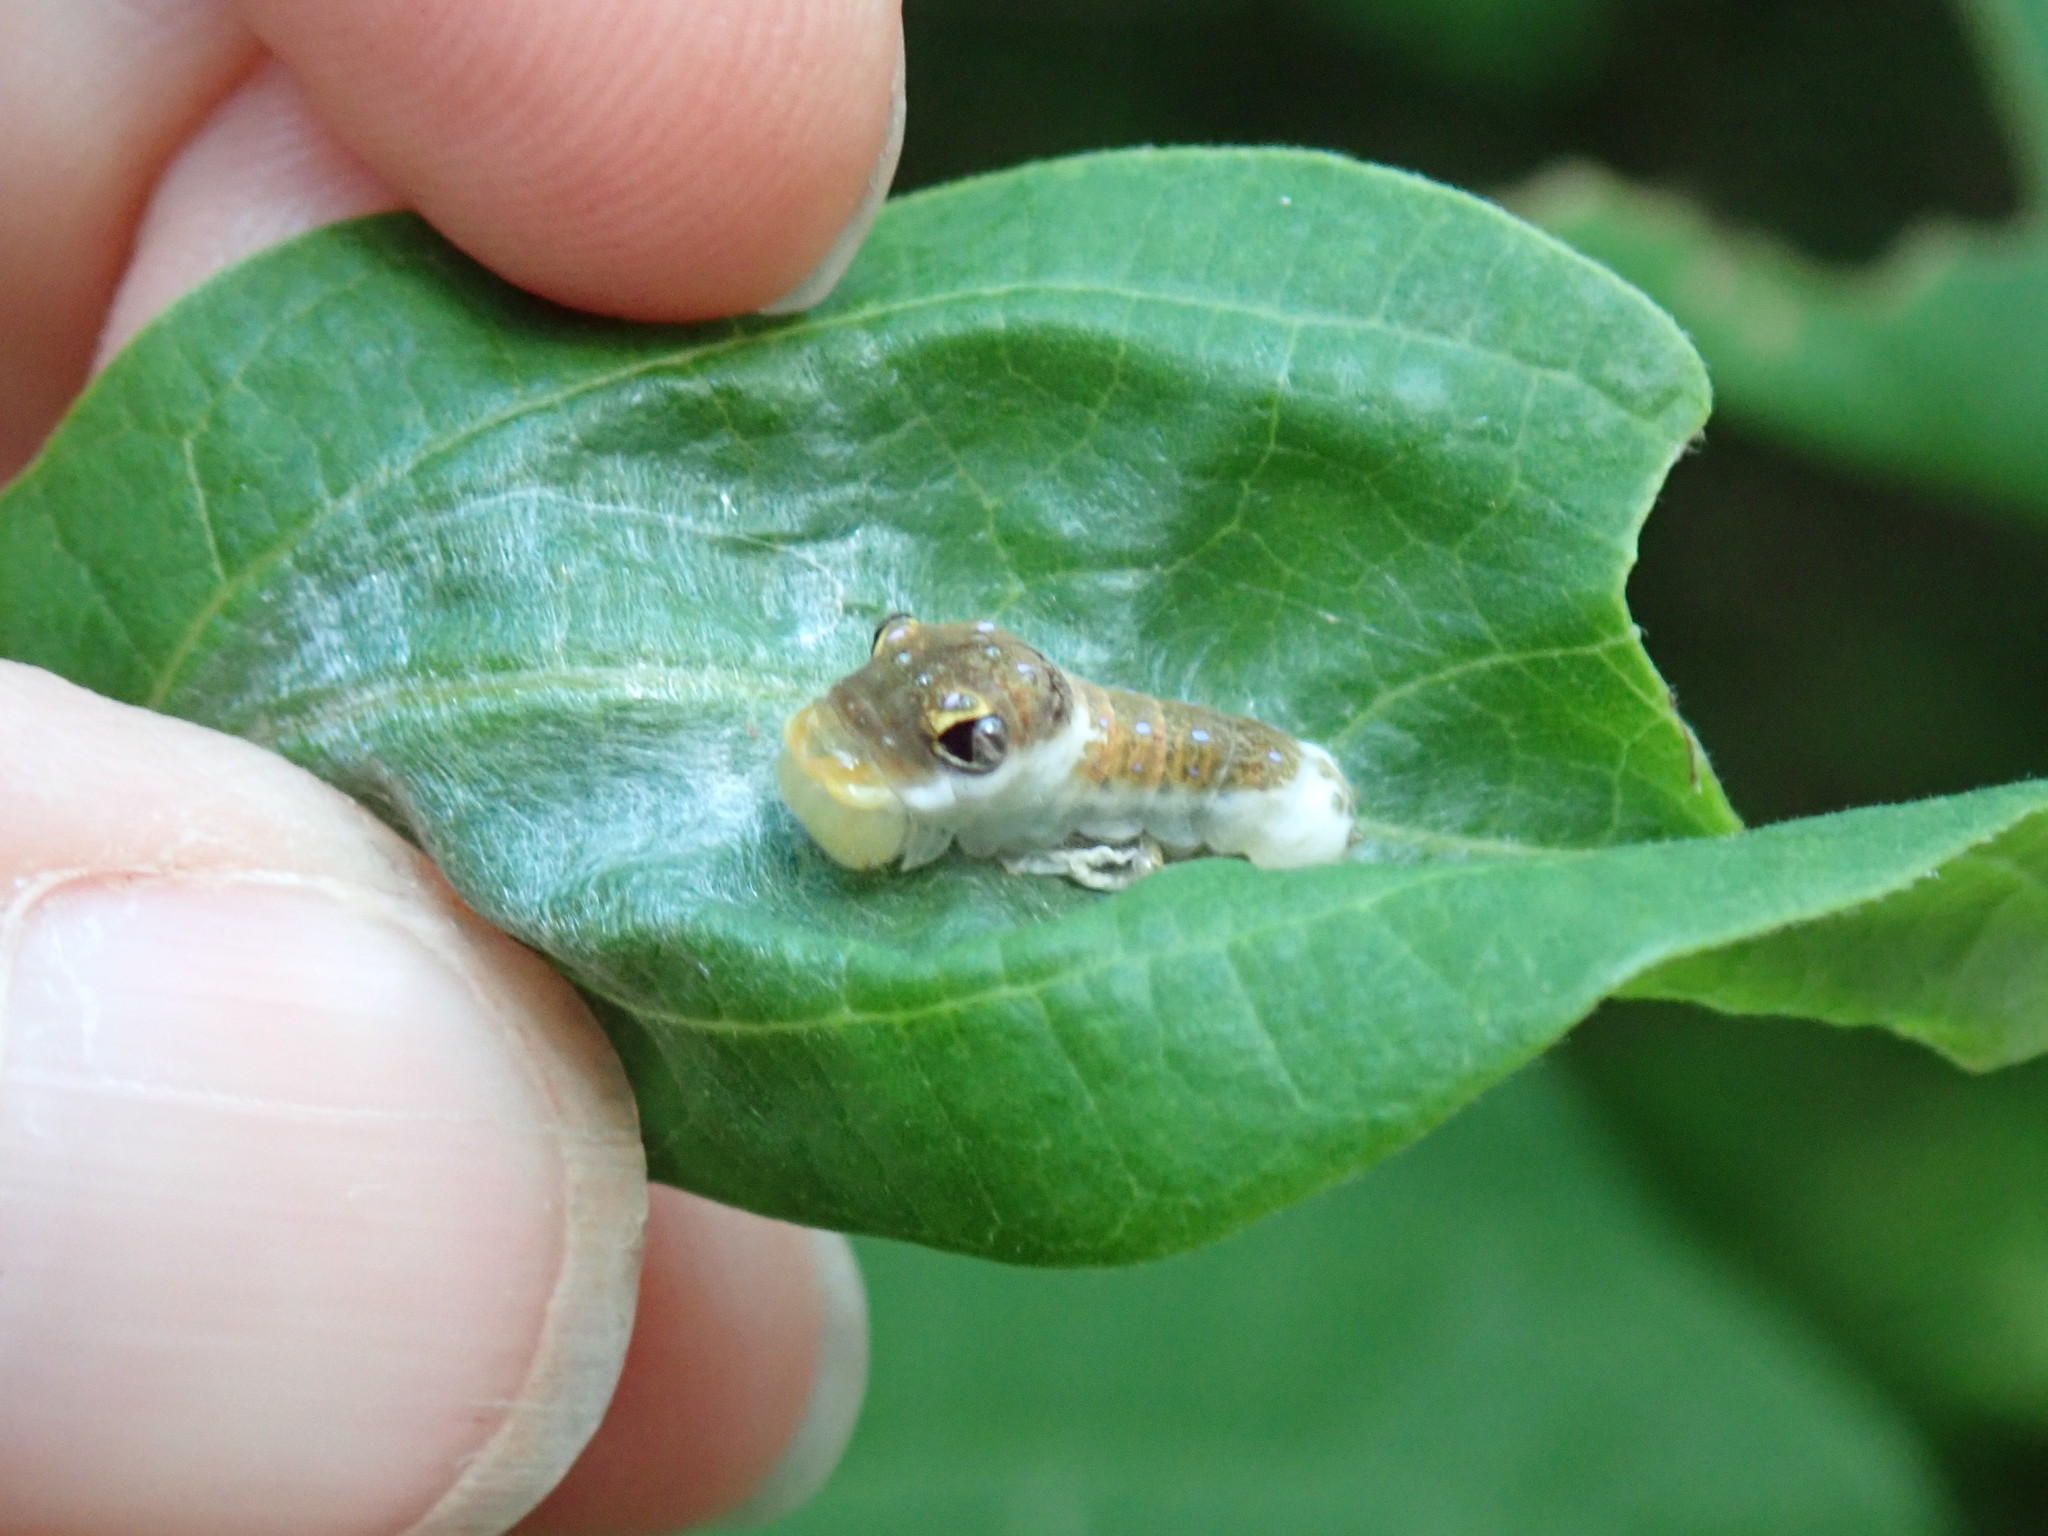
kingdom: Animalia
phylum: Arthropoda
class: Insecta
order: Lepidoptera
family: Papilionidae
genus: Papilio
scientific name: Papilio troilus
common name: Spicebush swallowtail
